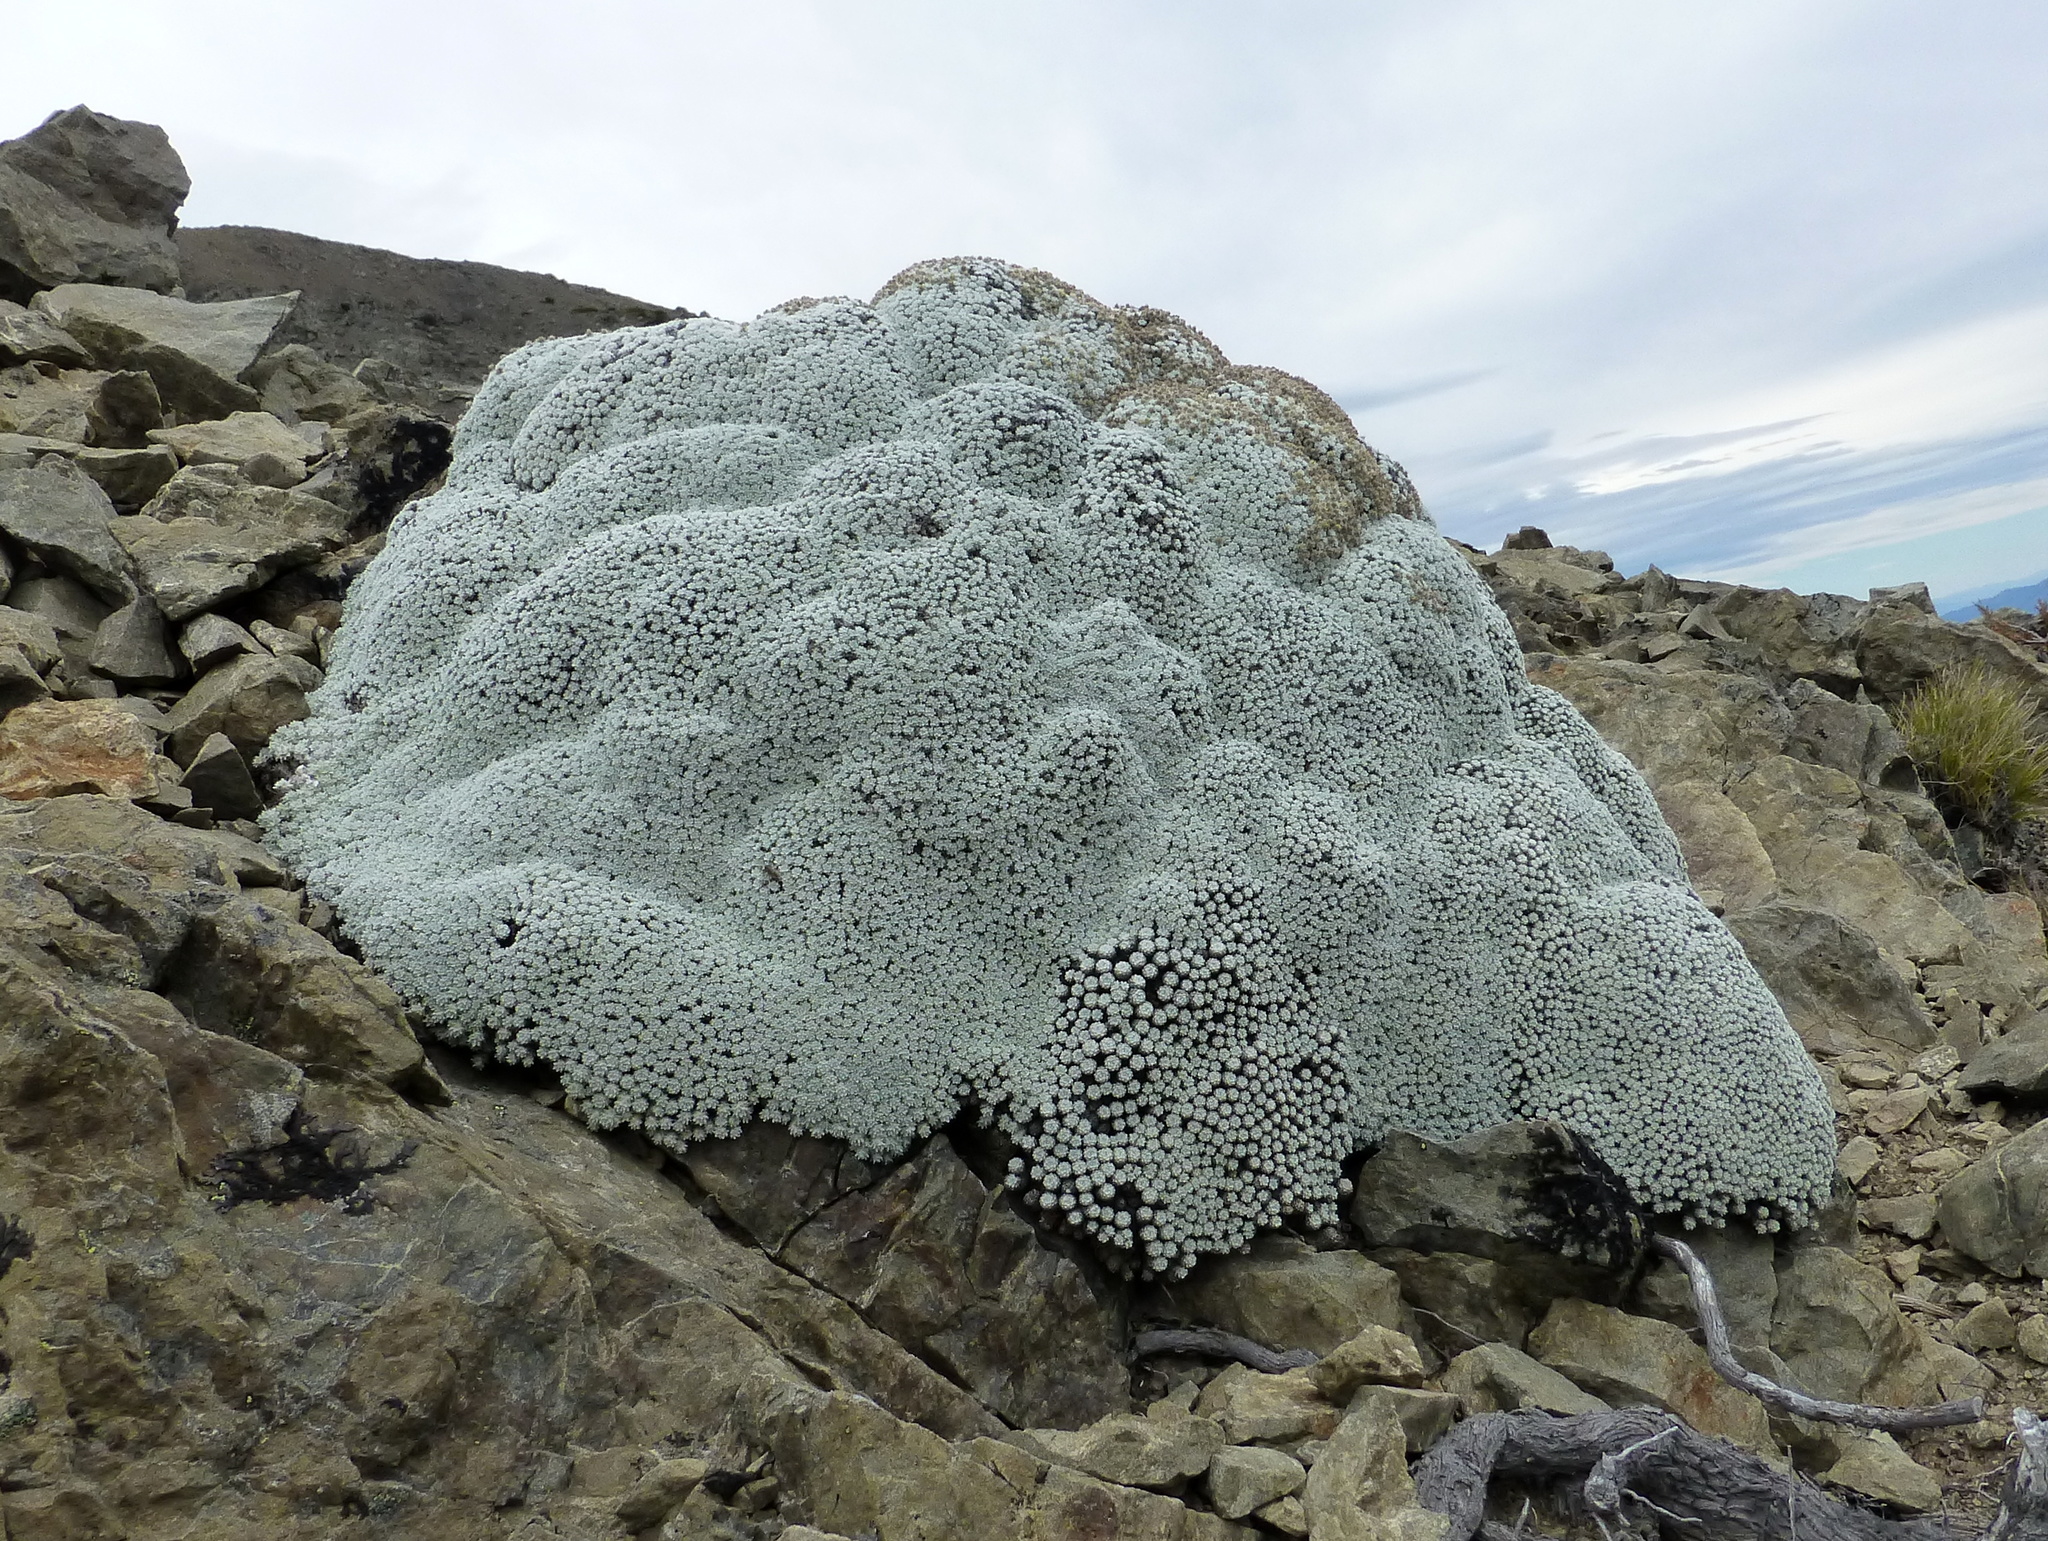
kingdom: Plantae
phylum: Tracheophyta
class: Magnoliopsida
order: Asterales
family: Asteraceae
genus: Raoulia
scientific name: Raoulia bryoides
